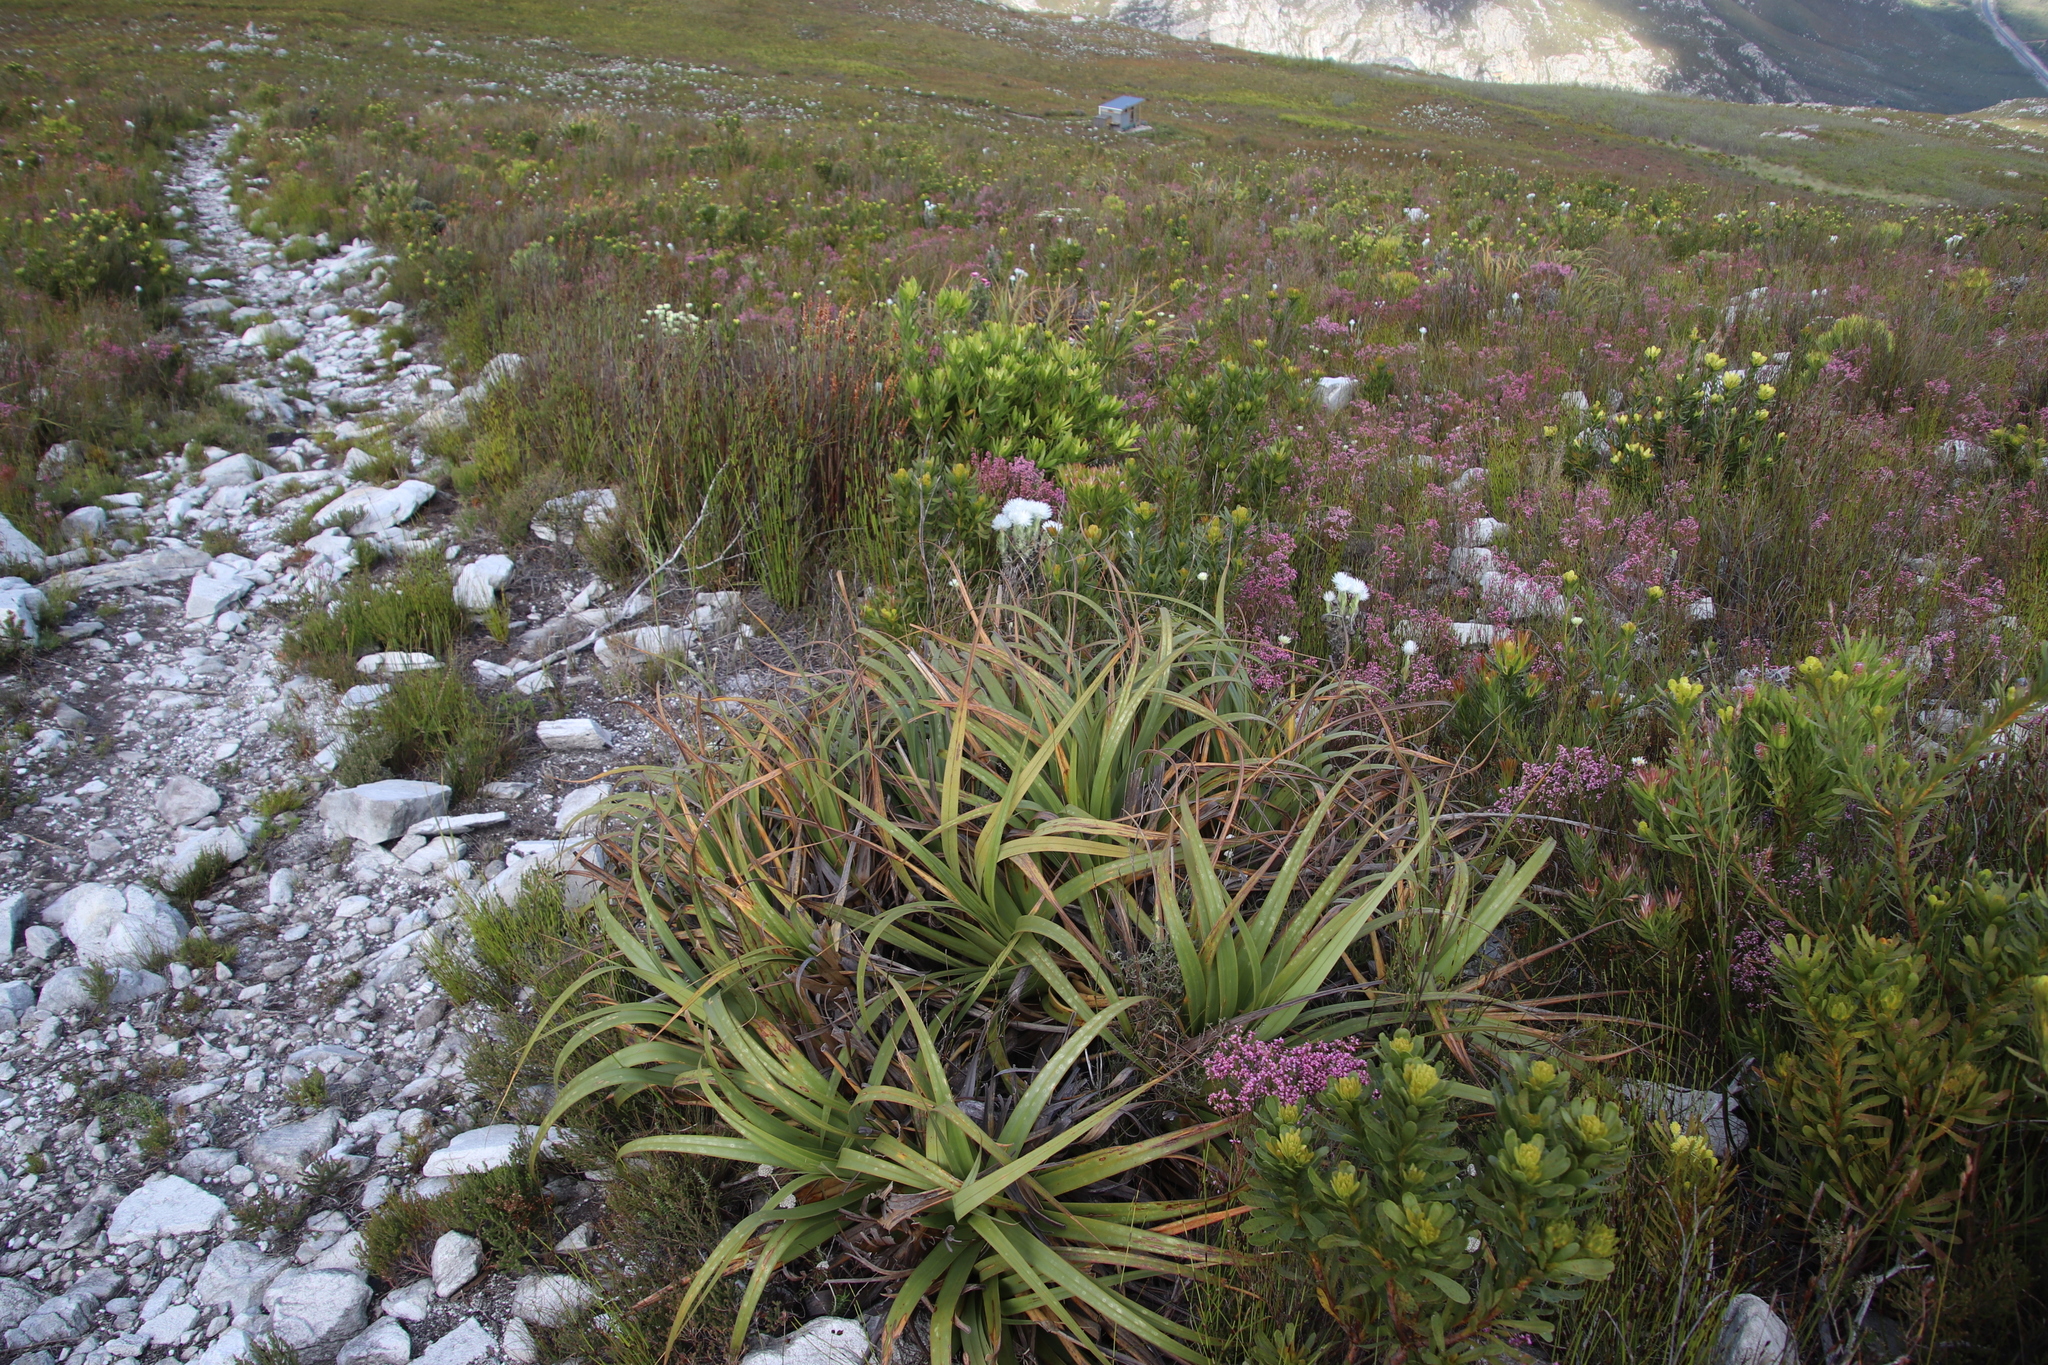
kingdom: Plantae
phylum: Tracheophyta
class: Liliopsida
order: Poales
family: Cyperaceae
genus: Tetraria
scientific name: Tetraria thermalis
